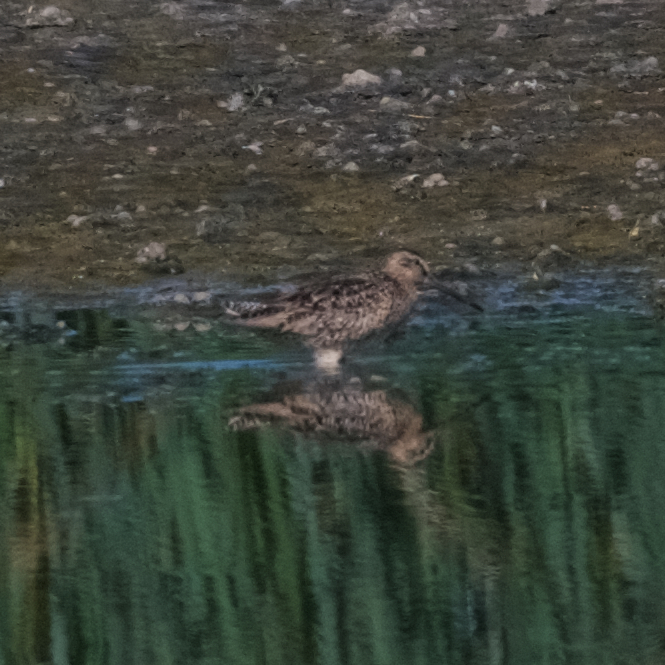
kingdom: Animalia
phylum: Chordata
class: Aves
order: Charadriiformes
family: Scolopacidae
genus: Limnodromus
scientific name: Limnodromus
